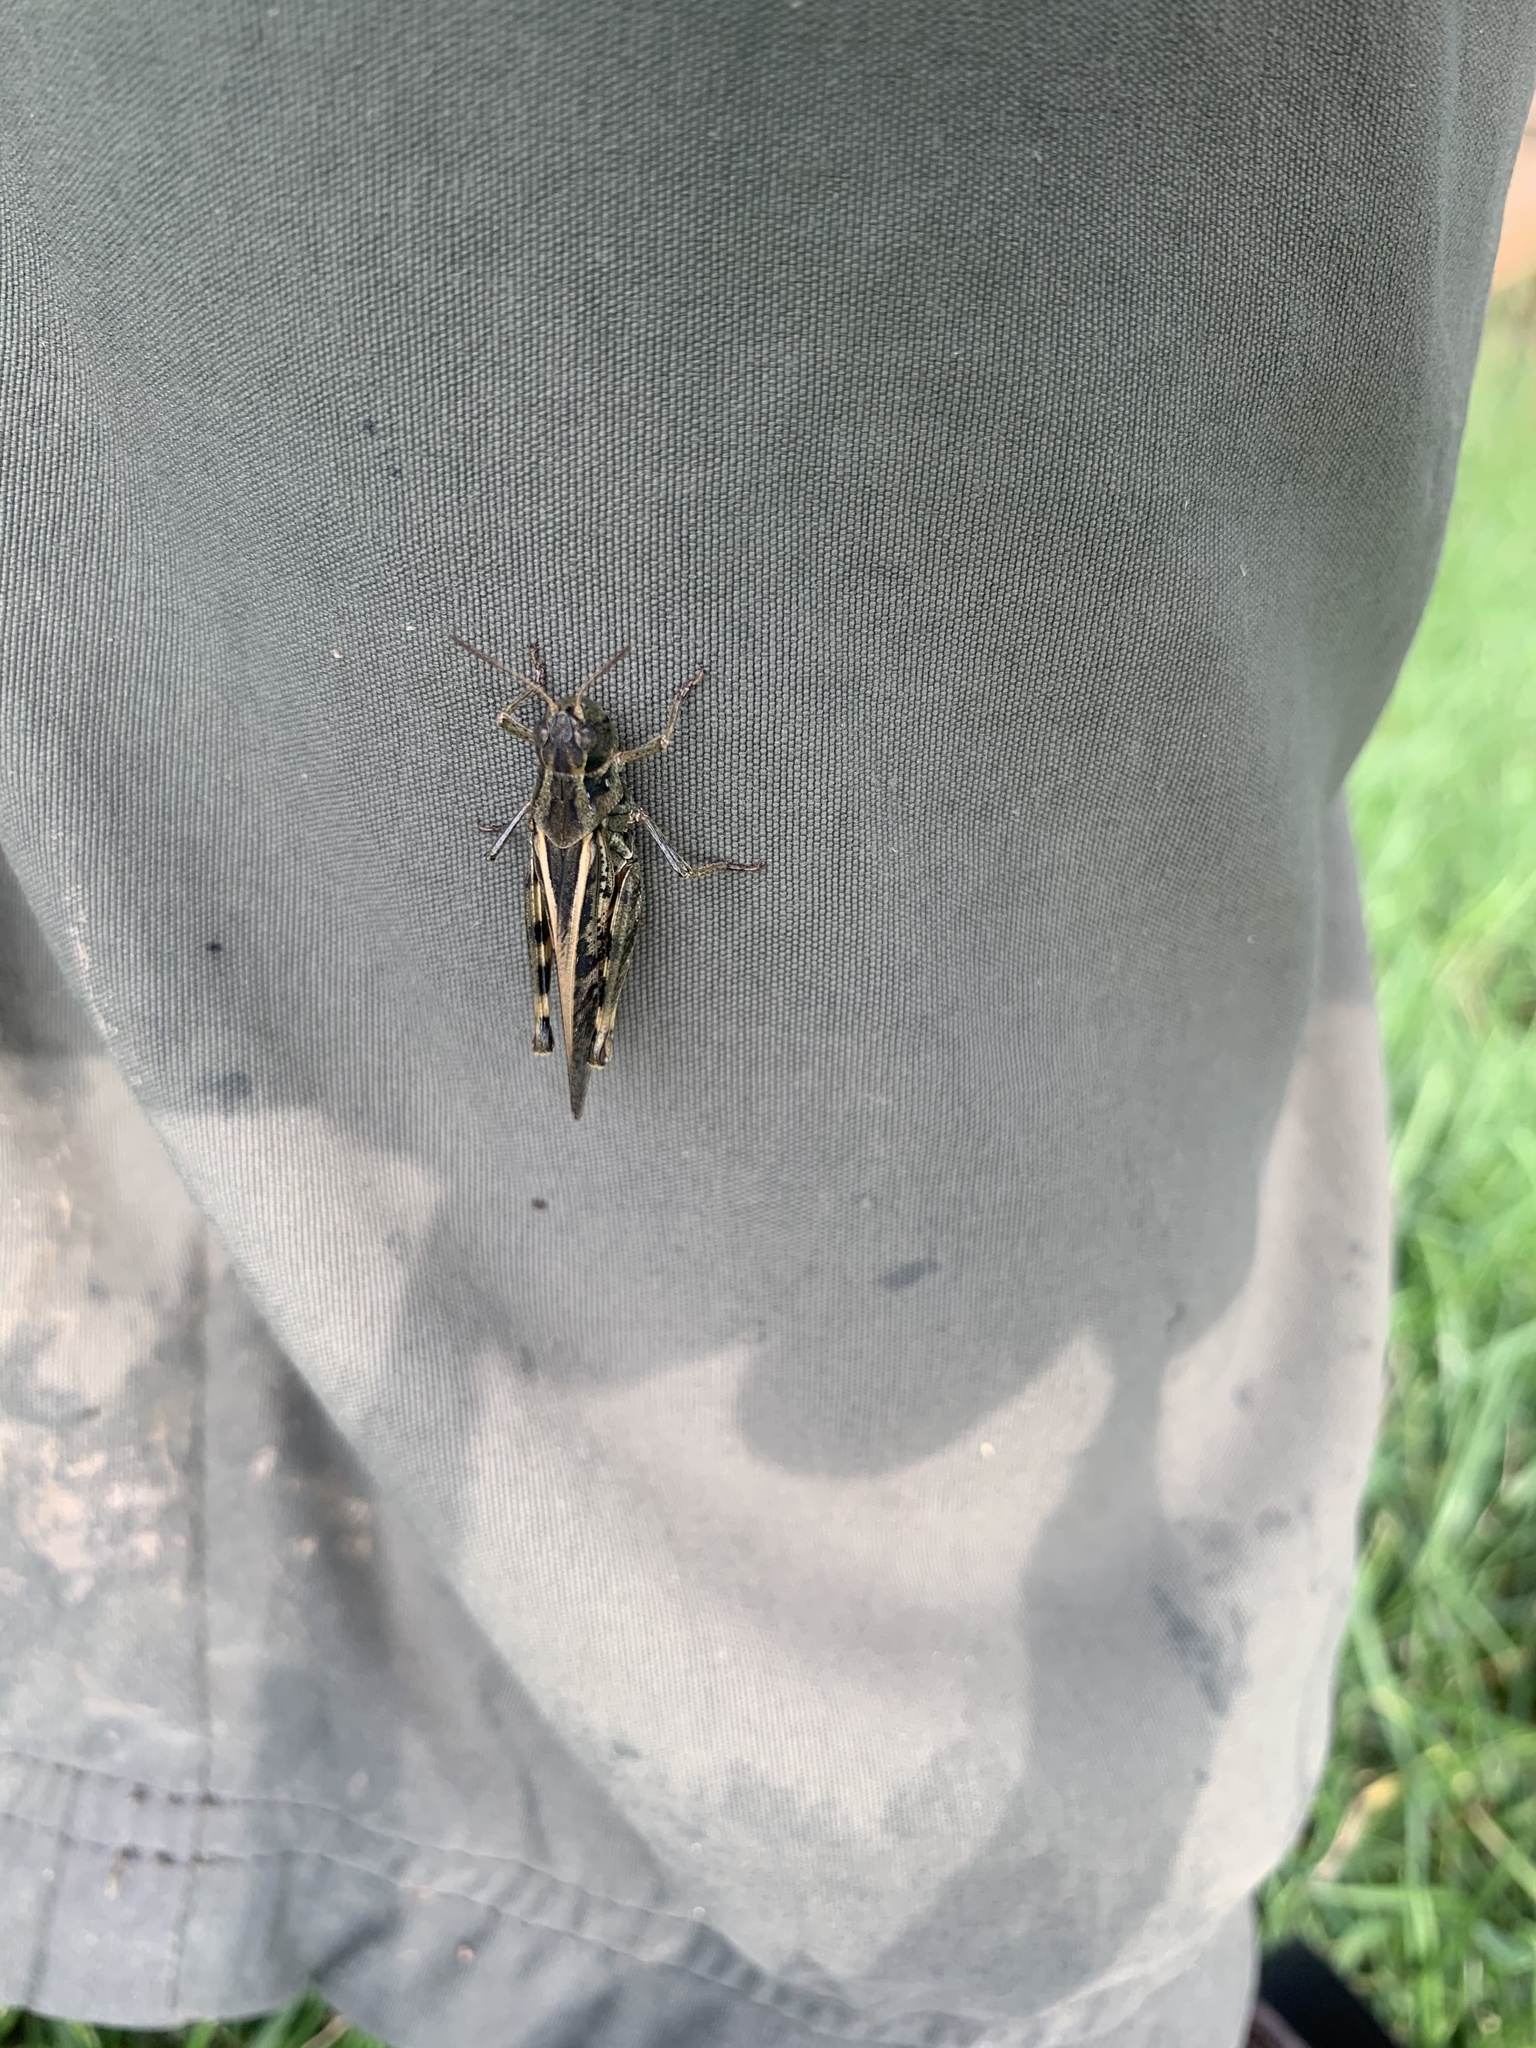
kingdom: Animalia
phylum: Arthropoda
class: Insecta
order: Orthoptera
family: Acrididae
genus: Camnula
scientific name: Camnula pellucida
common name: Clear-winged grasshopper
